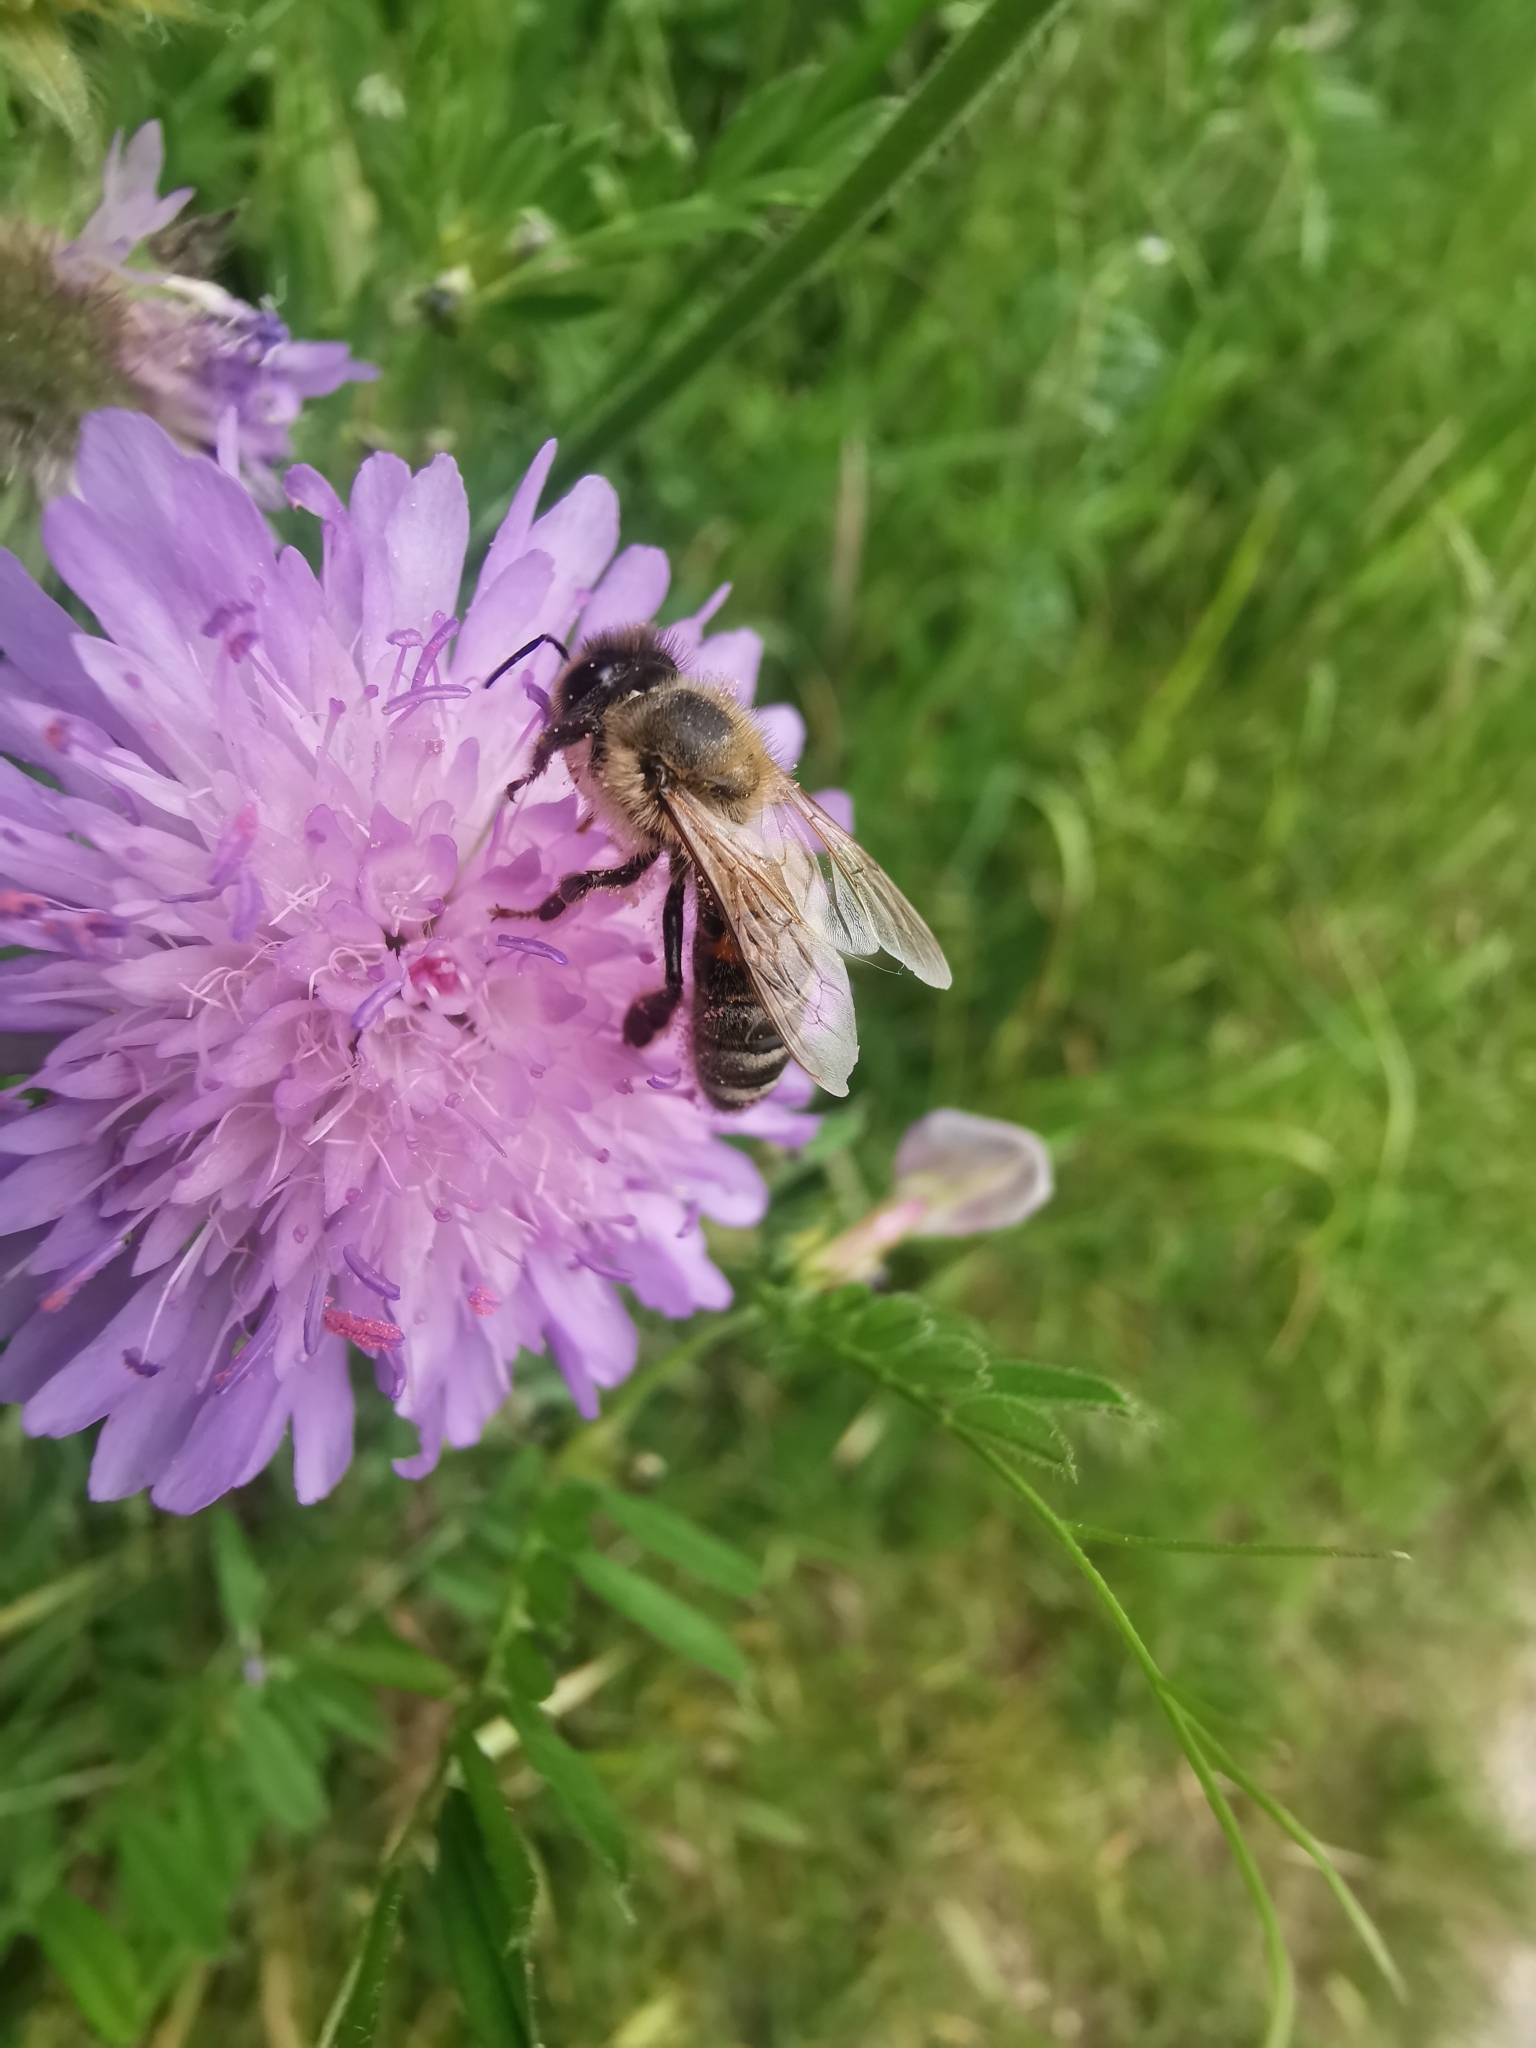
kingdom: Animalia
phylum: Arthropoda
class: Insecta
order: Hymenoptera
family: Apidae
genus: Apis
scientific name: Apis mellifera
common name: Honey bee
